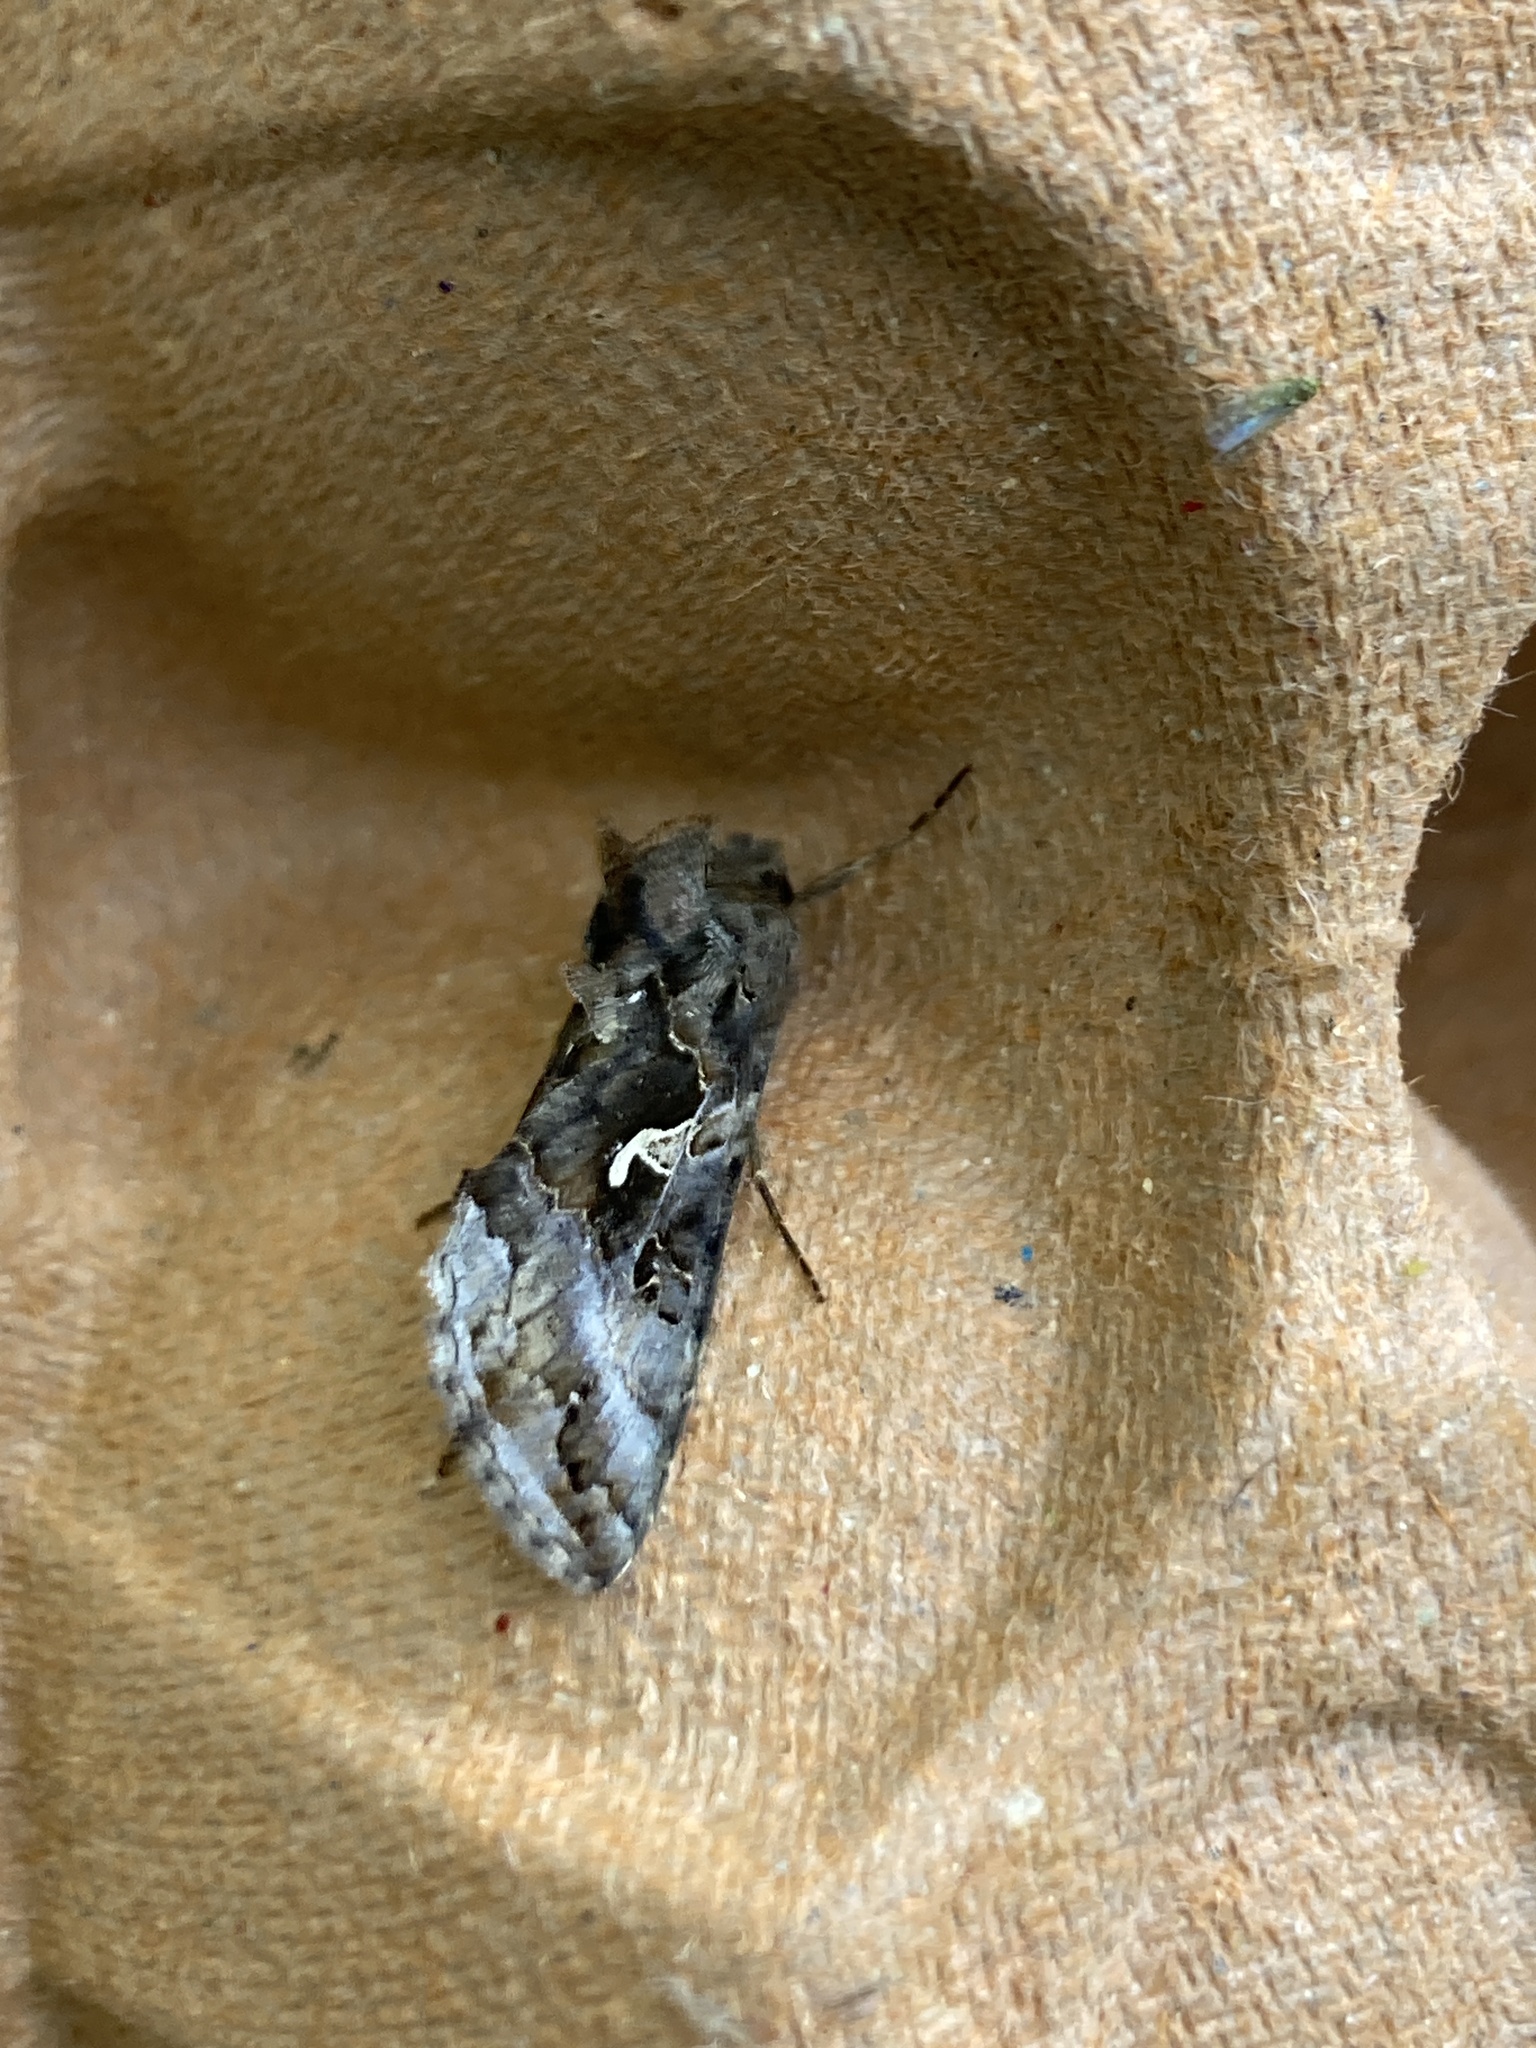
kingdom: Animalia
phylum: Arthropoda
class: Insecta
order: Lepidoptera
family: Noctuidae
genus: Autographa
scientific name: Autographa gamma
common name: Silver y
